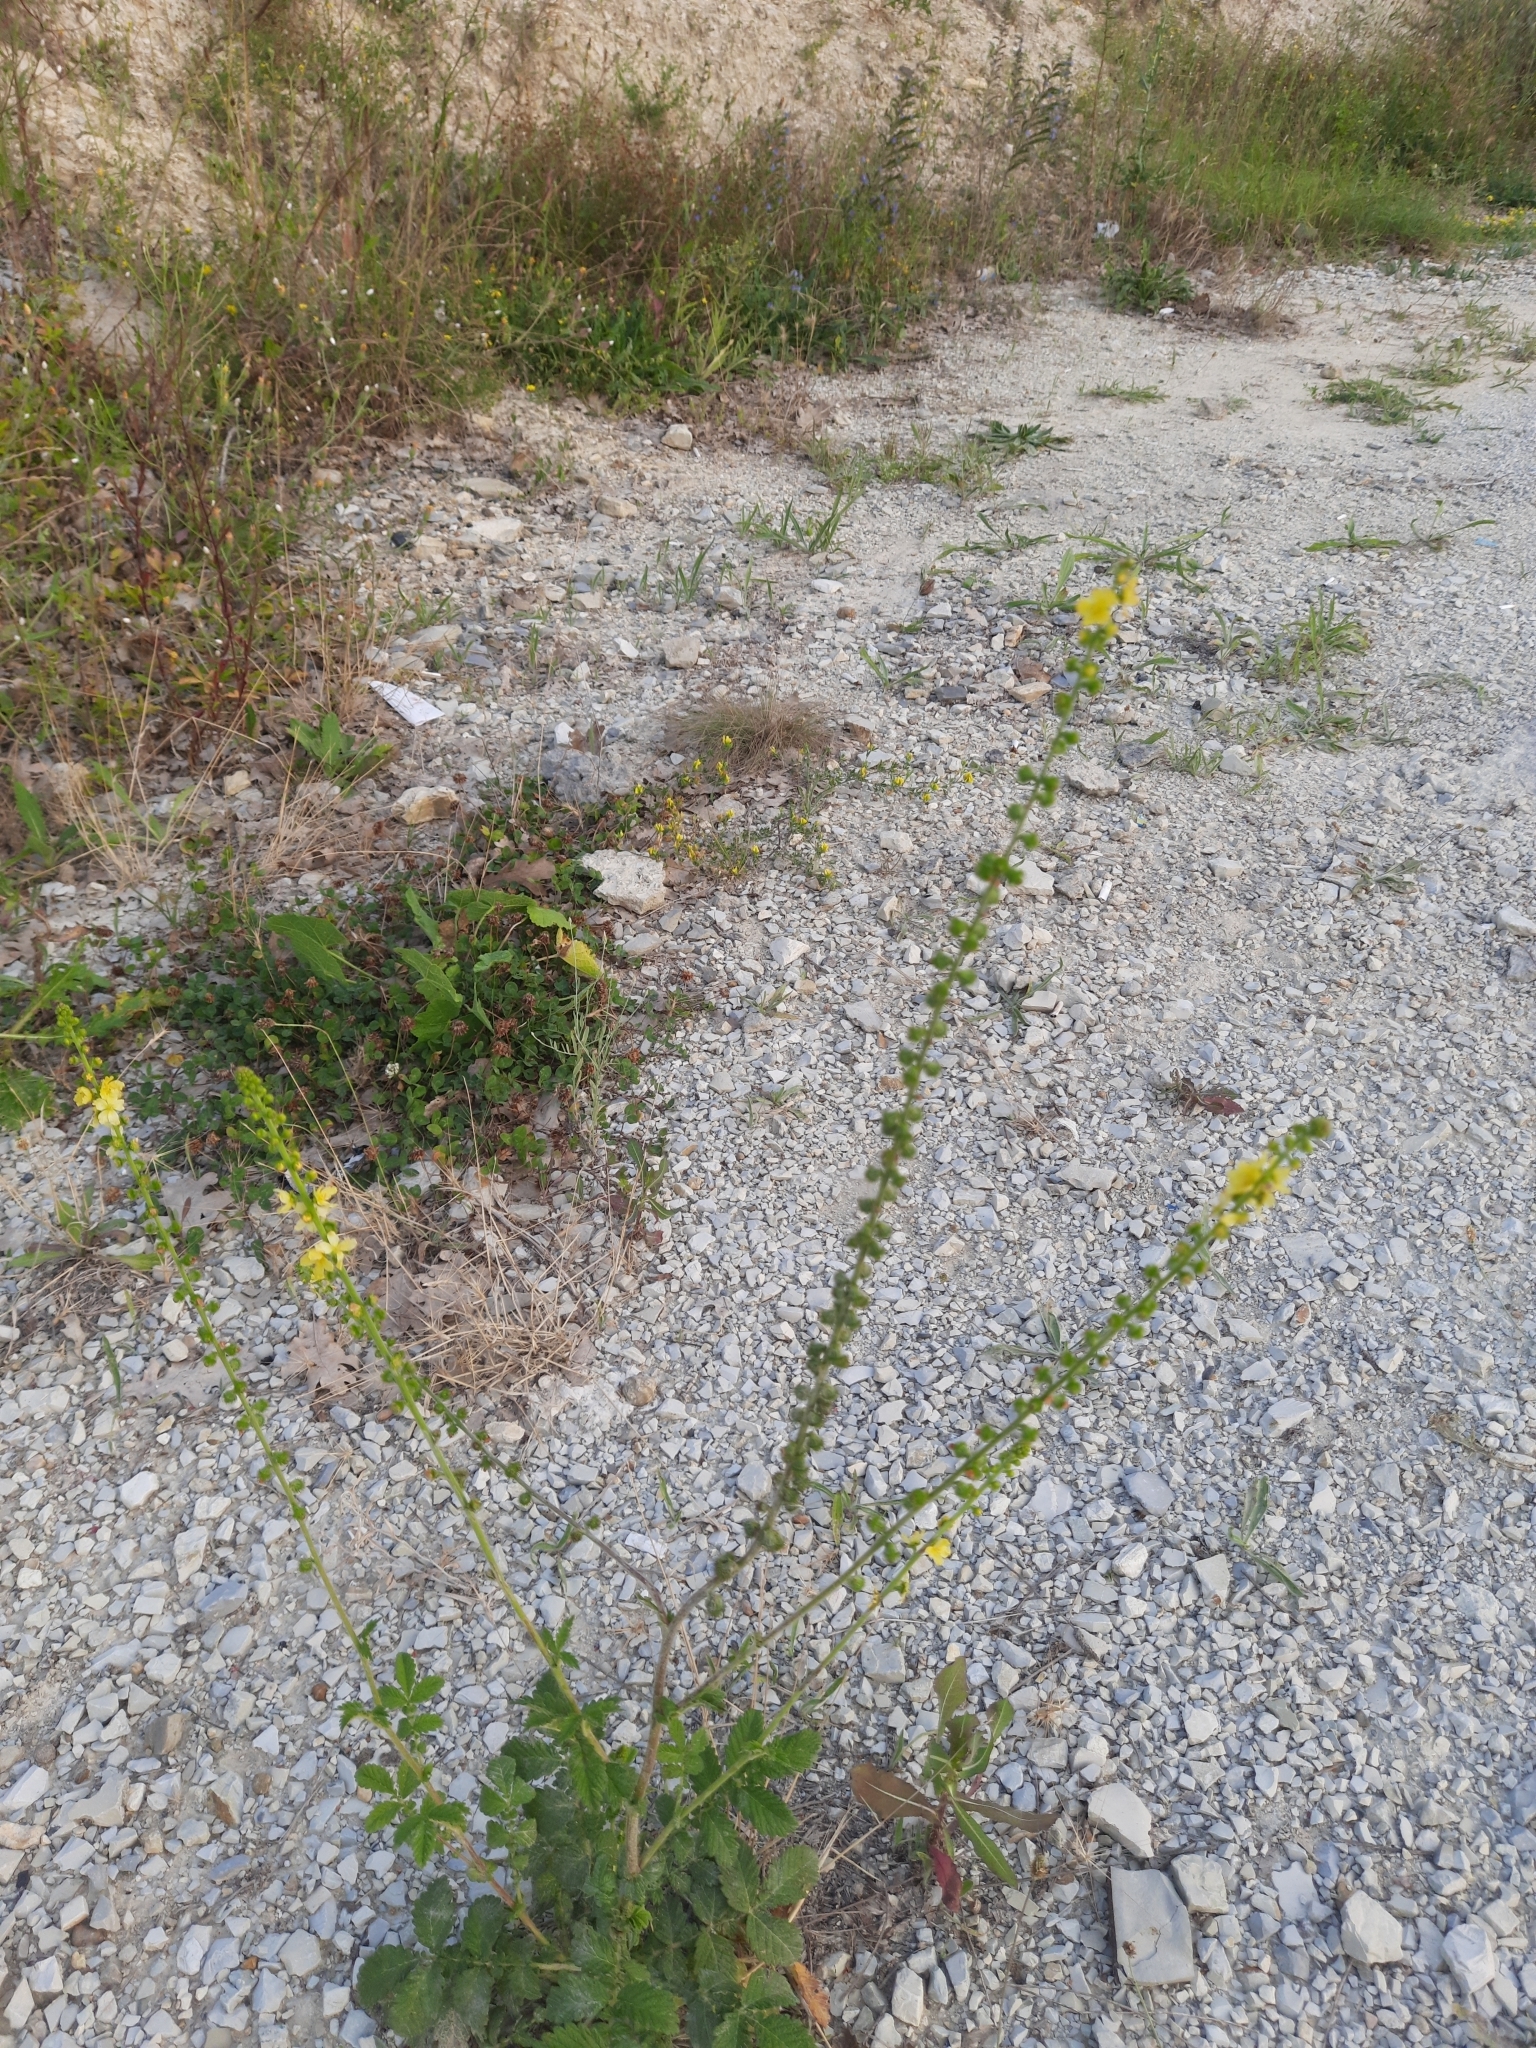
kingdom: Plantae
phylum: Tracheophyta
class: Magnoliopsida
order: Rosales
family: Rosaceae
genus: Agrimonia
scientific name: Agrimonia eupatoria
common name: Agrimony
